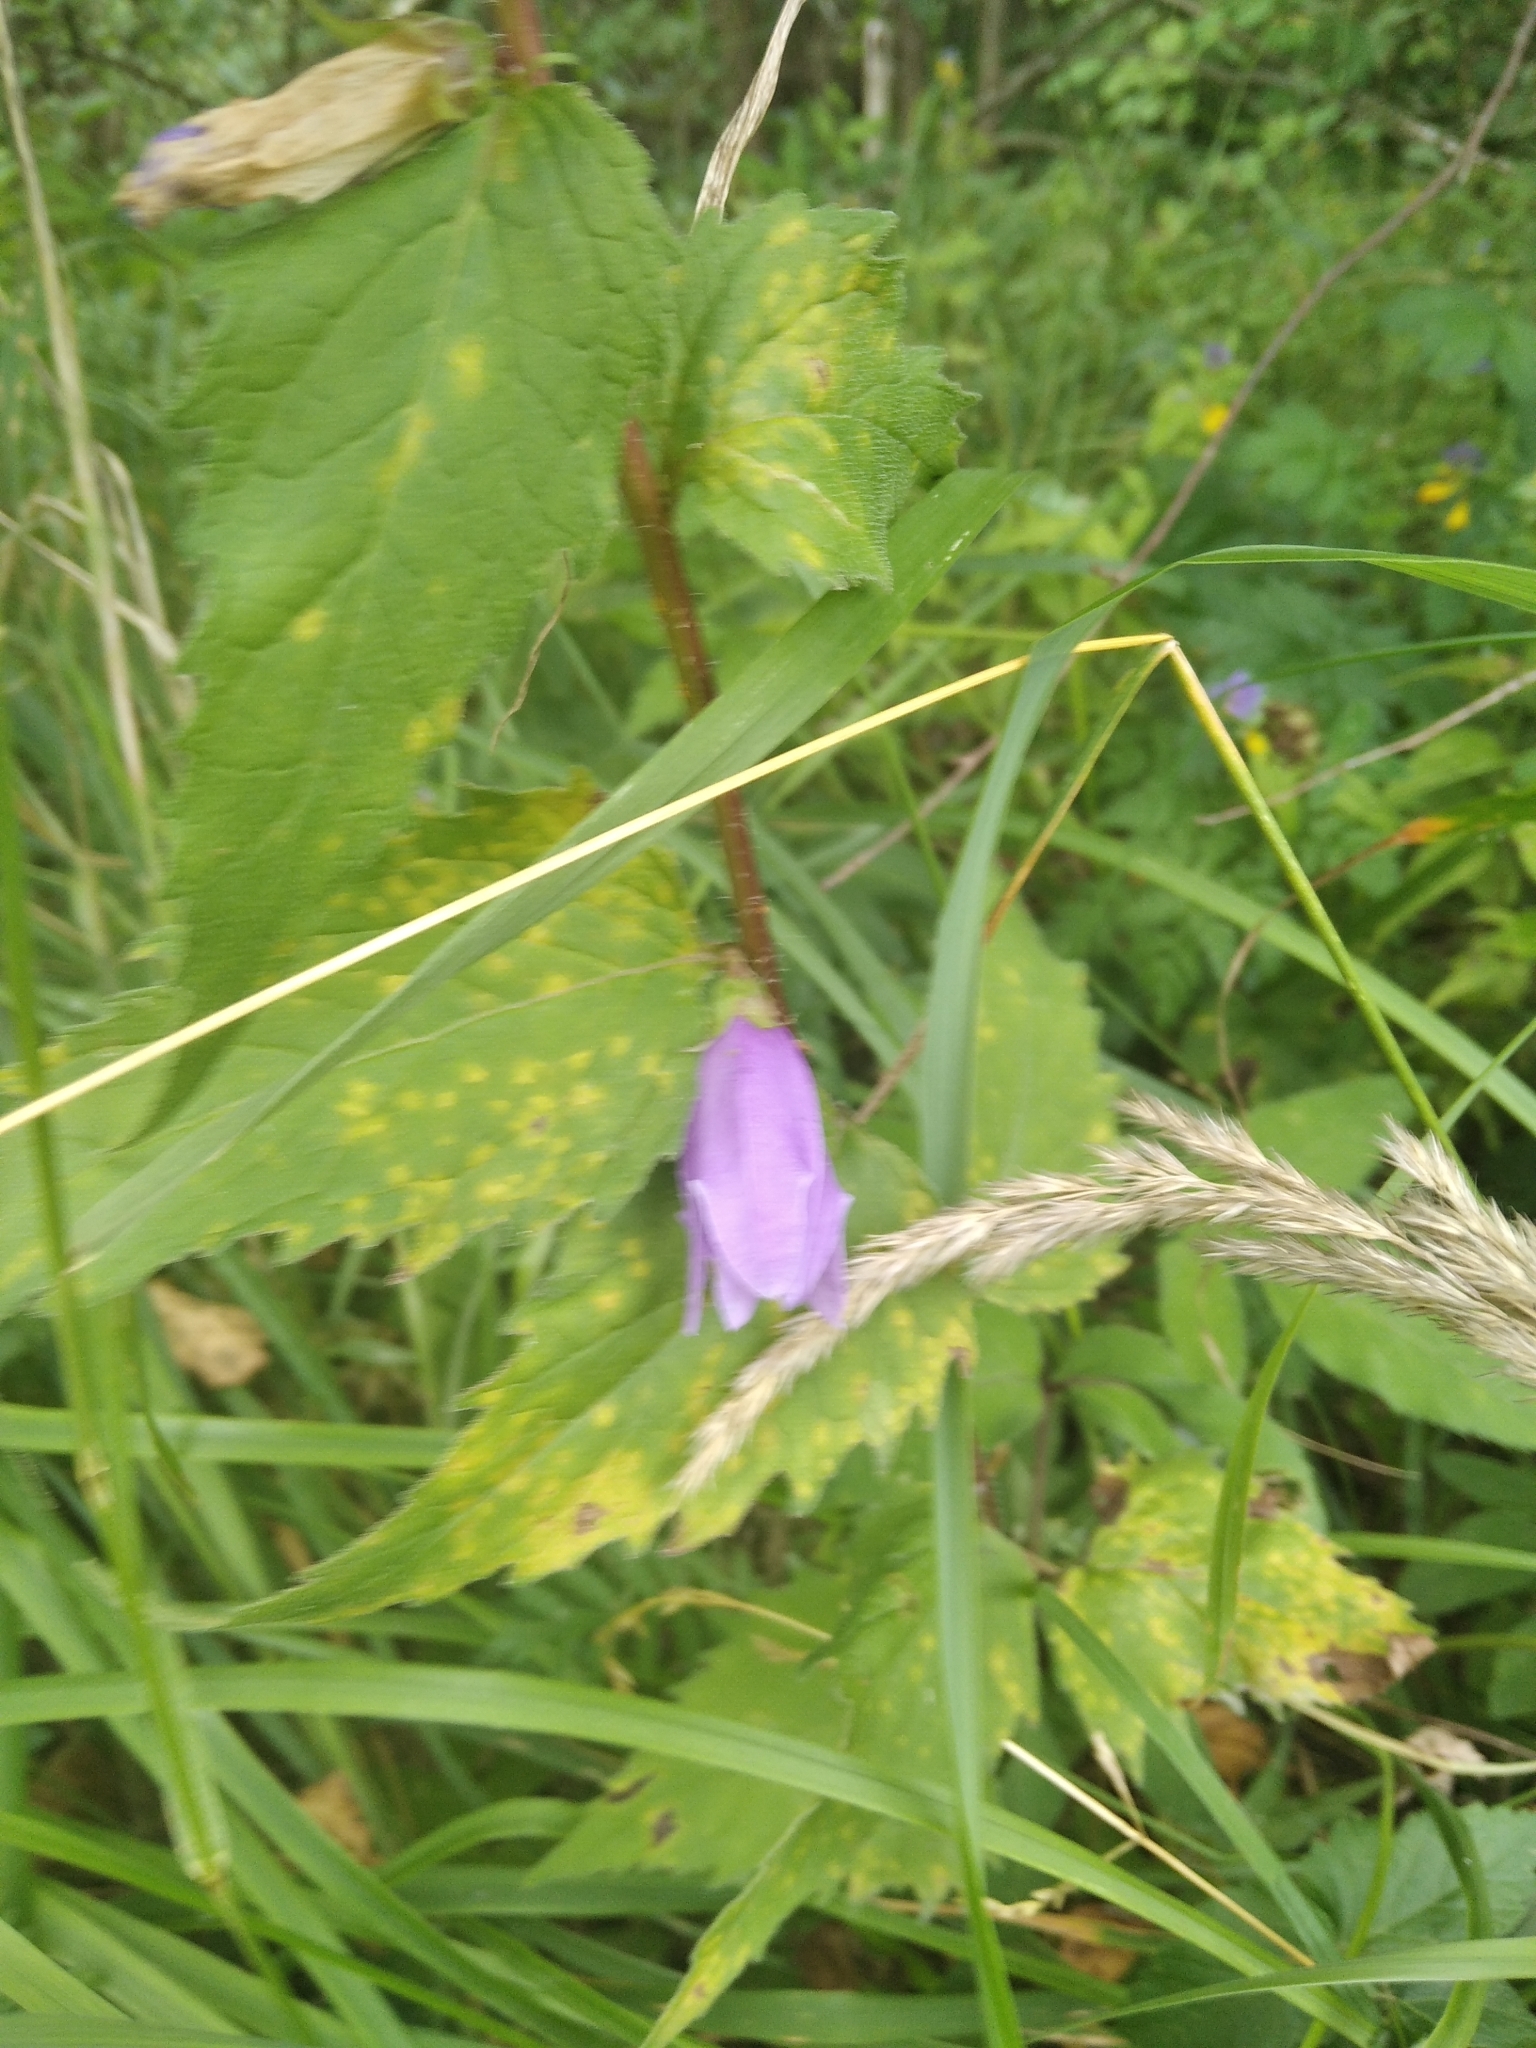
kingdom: Plantae
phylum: Tracheophyta
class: Magnoliopsida
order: Asterales
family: Campanulaceae
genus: Campanula
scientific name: Campanula trachelium
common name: Nettle-leaved bellflower
